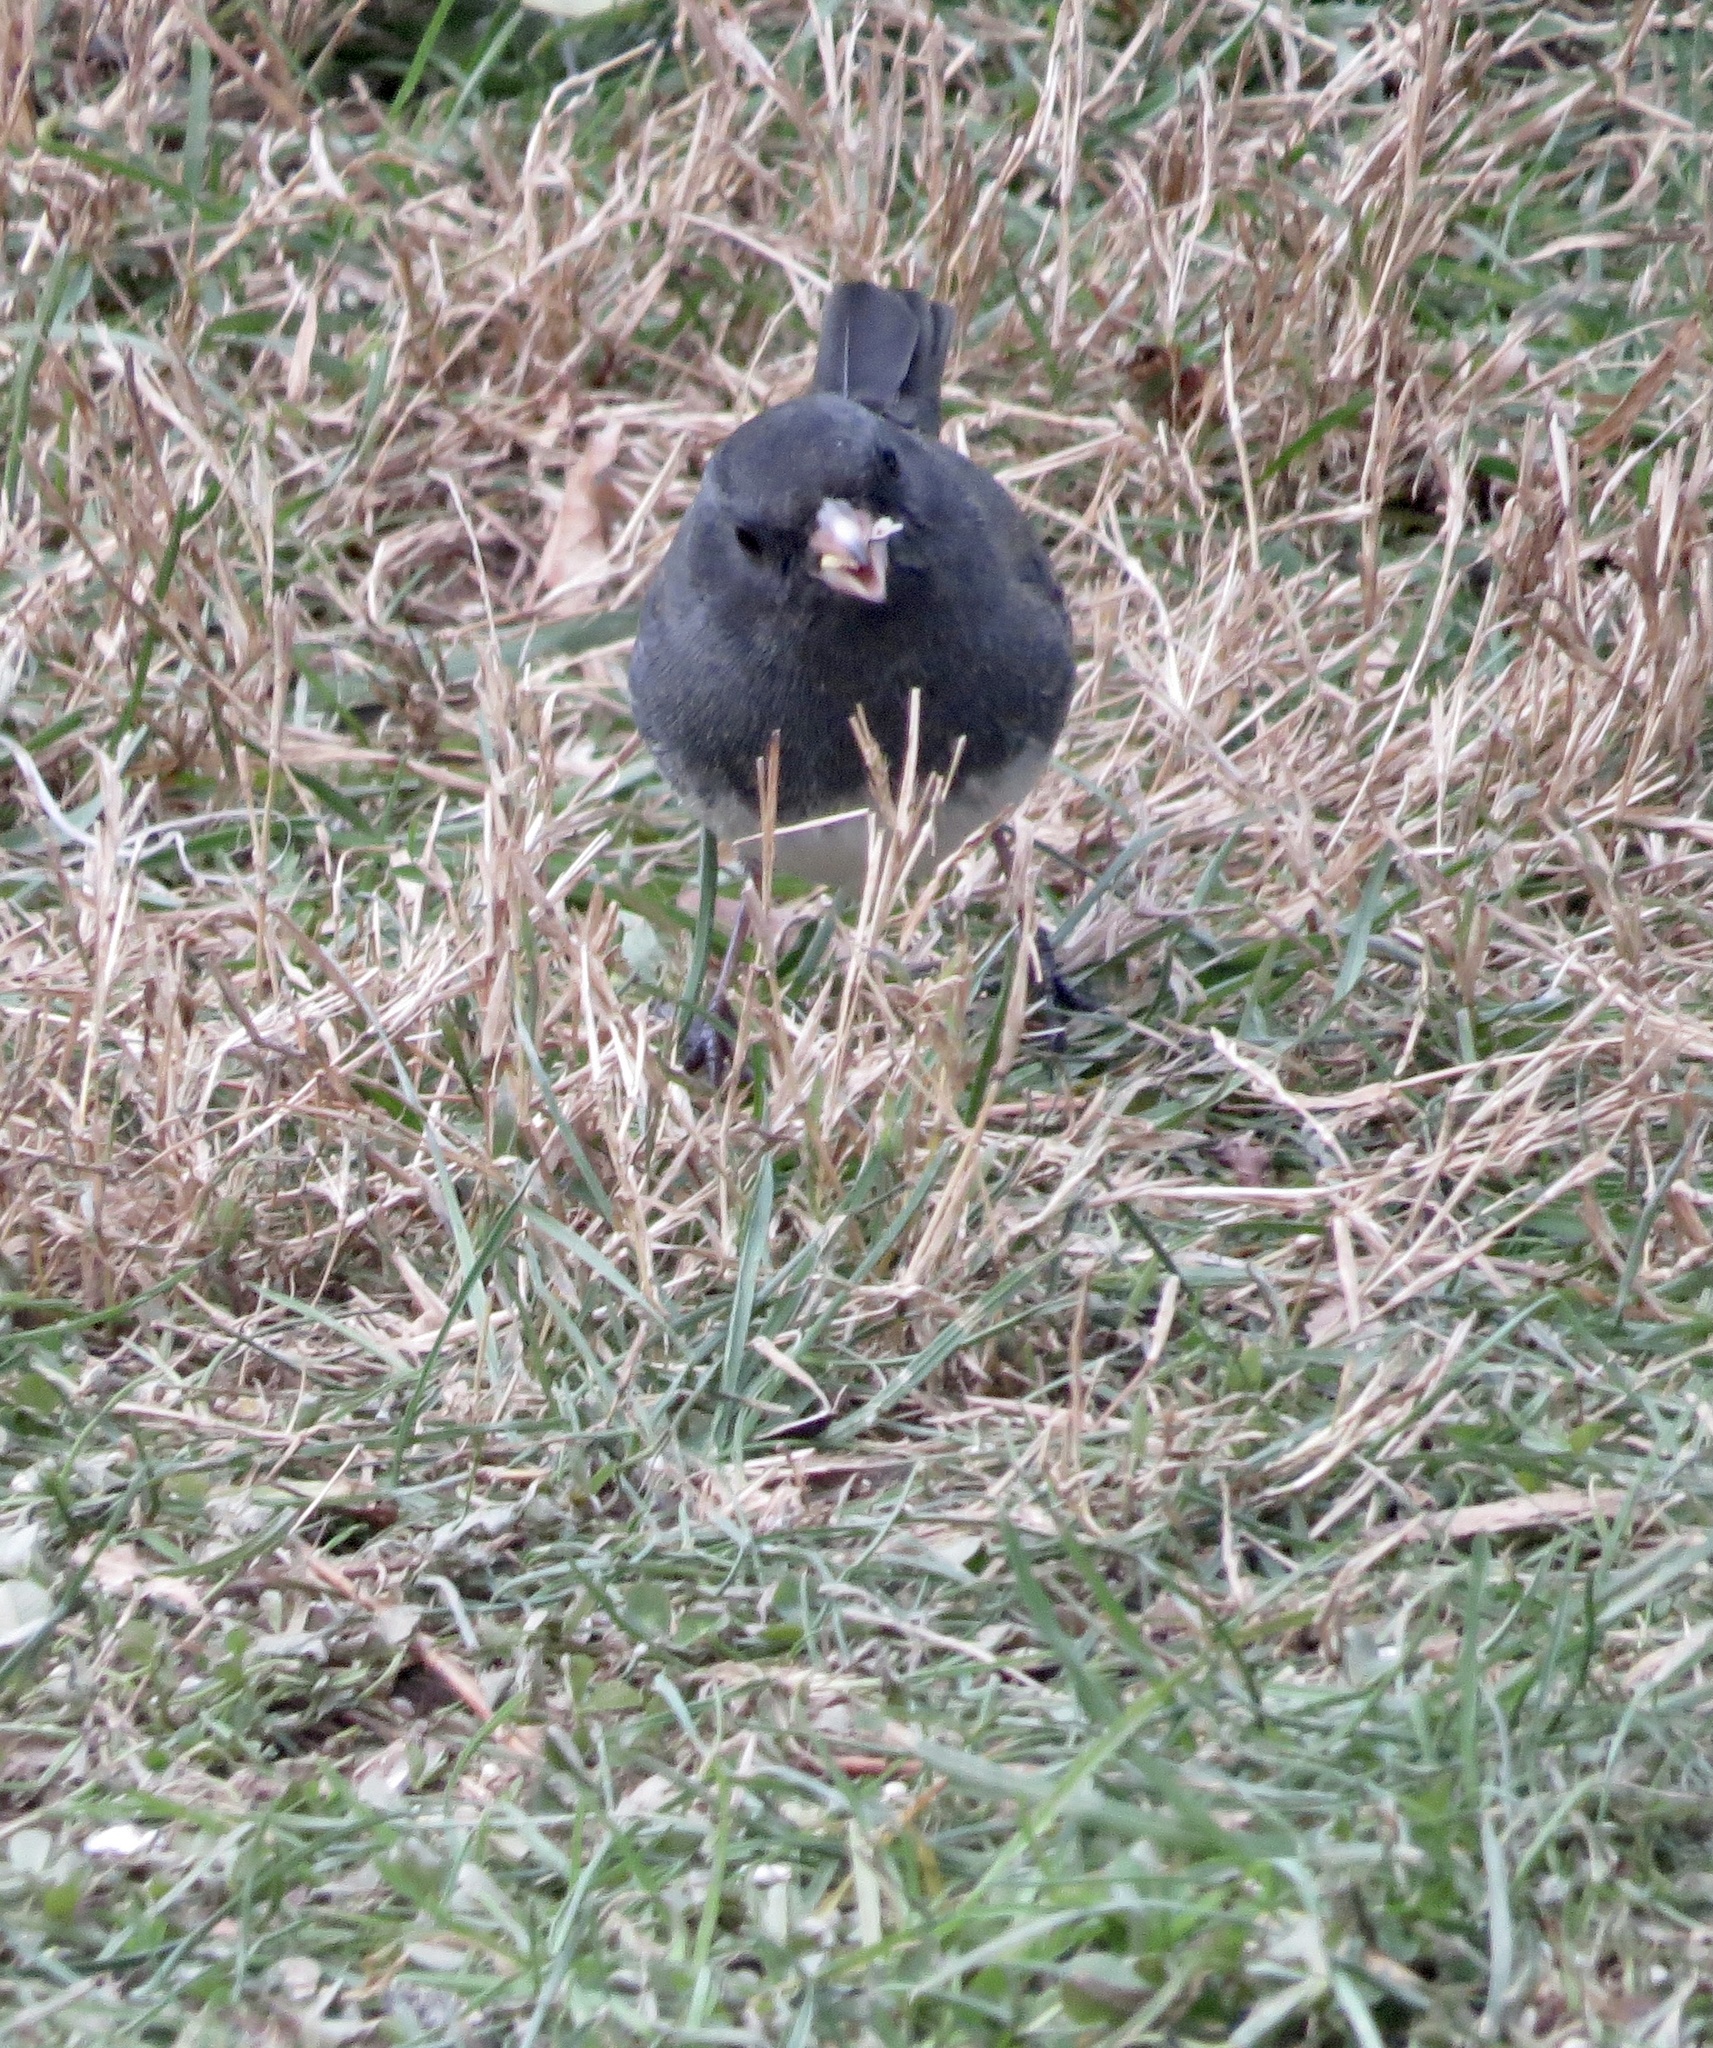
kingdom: Animalia
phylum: Chordata
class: Aves
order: Passeriformes
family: Passerellidae
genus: Junco
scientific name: Junco hyemalis
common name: Dark-eyed junco
